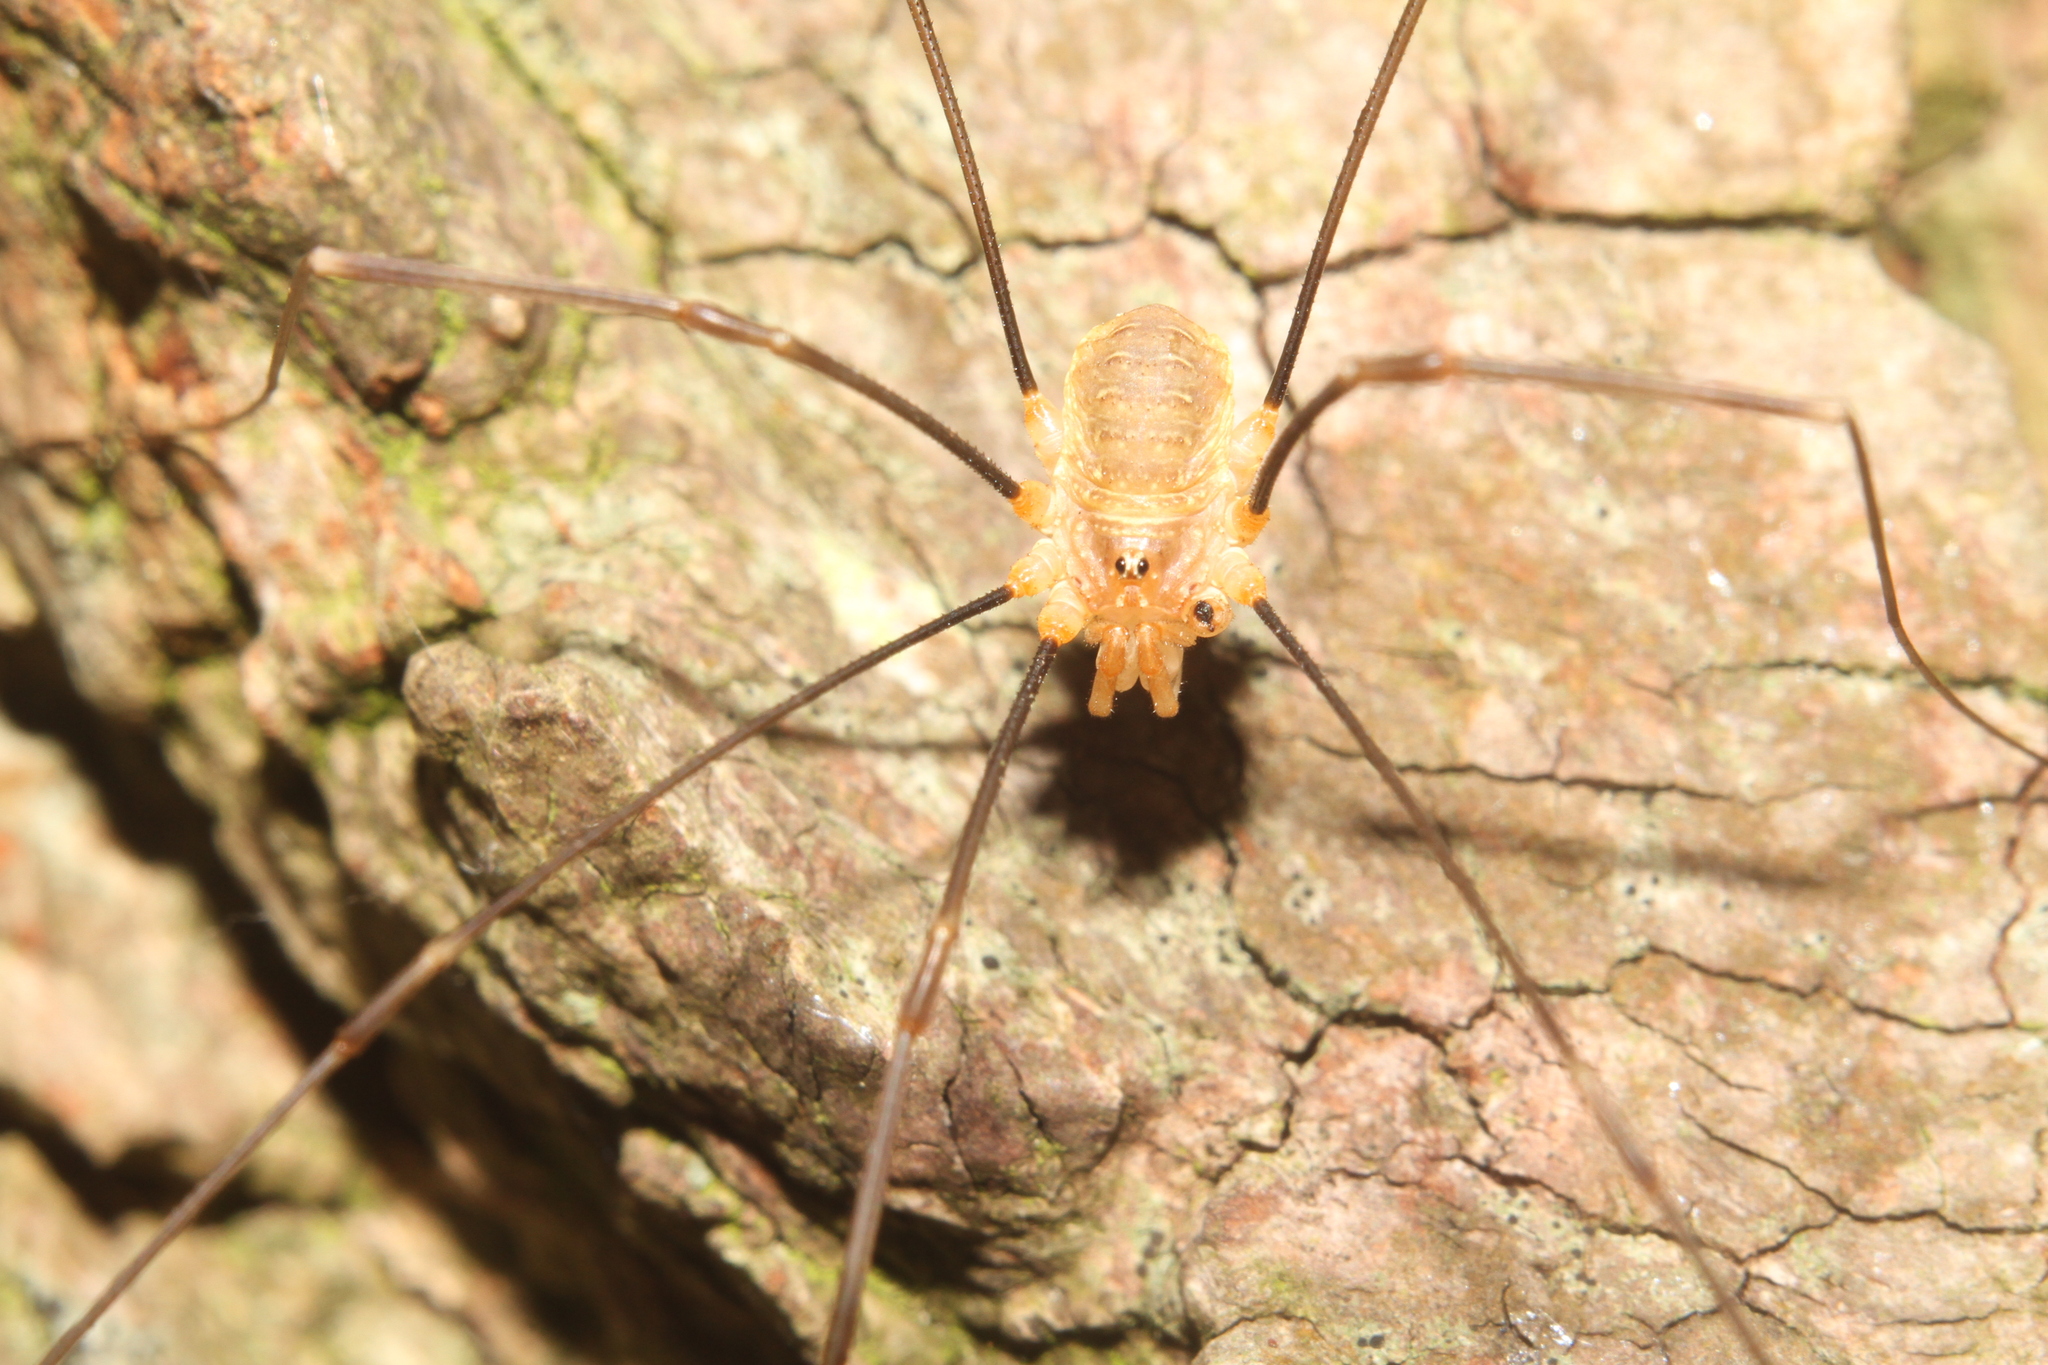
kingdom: Animalia
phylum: Arthropoda
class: Arachnida
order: Opiliones
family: Phalangiidae
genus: Opilio
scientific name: Opilio canestrinii
